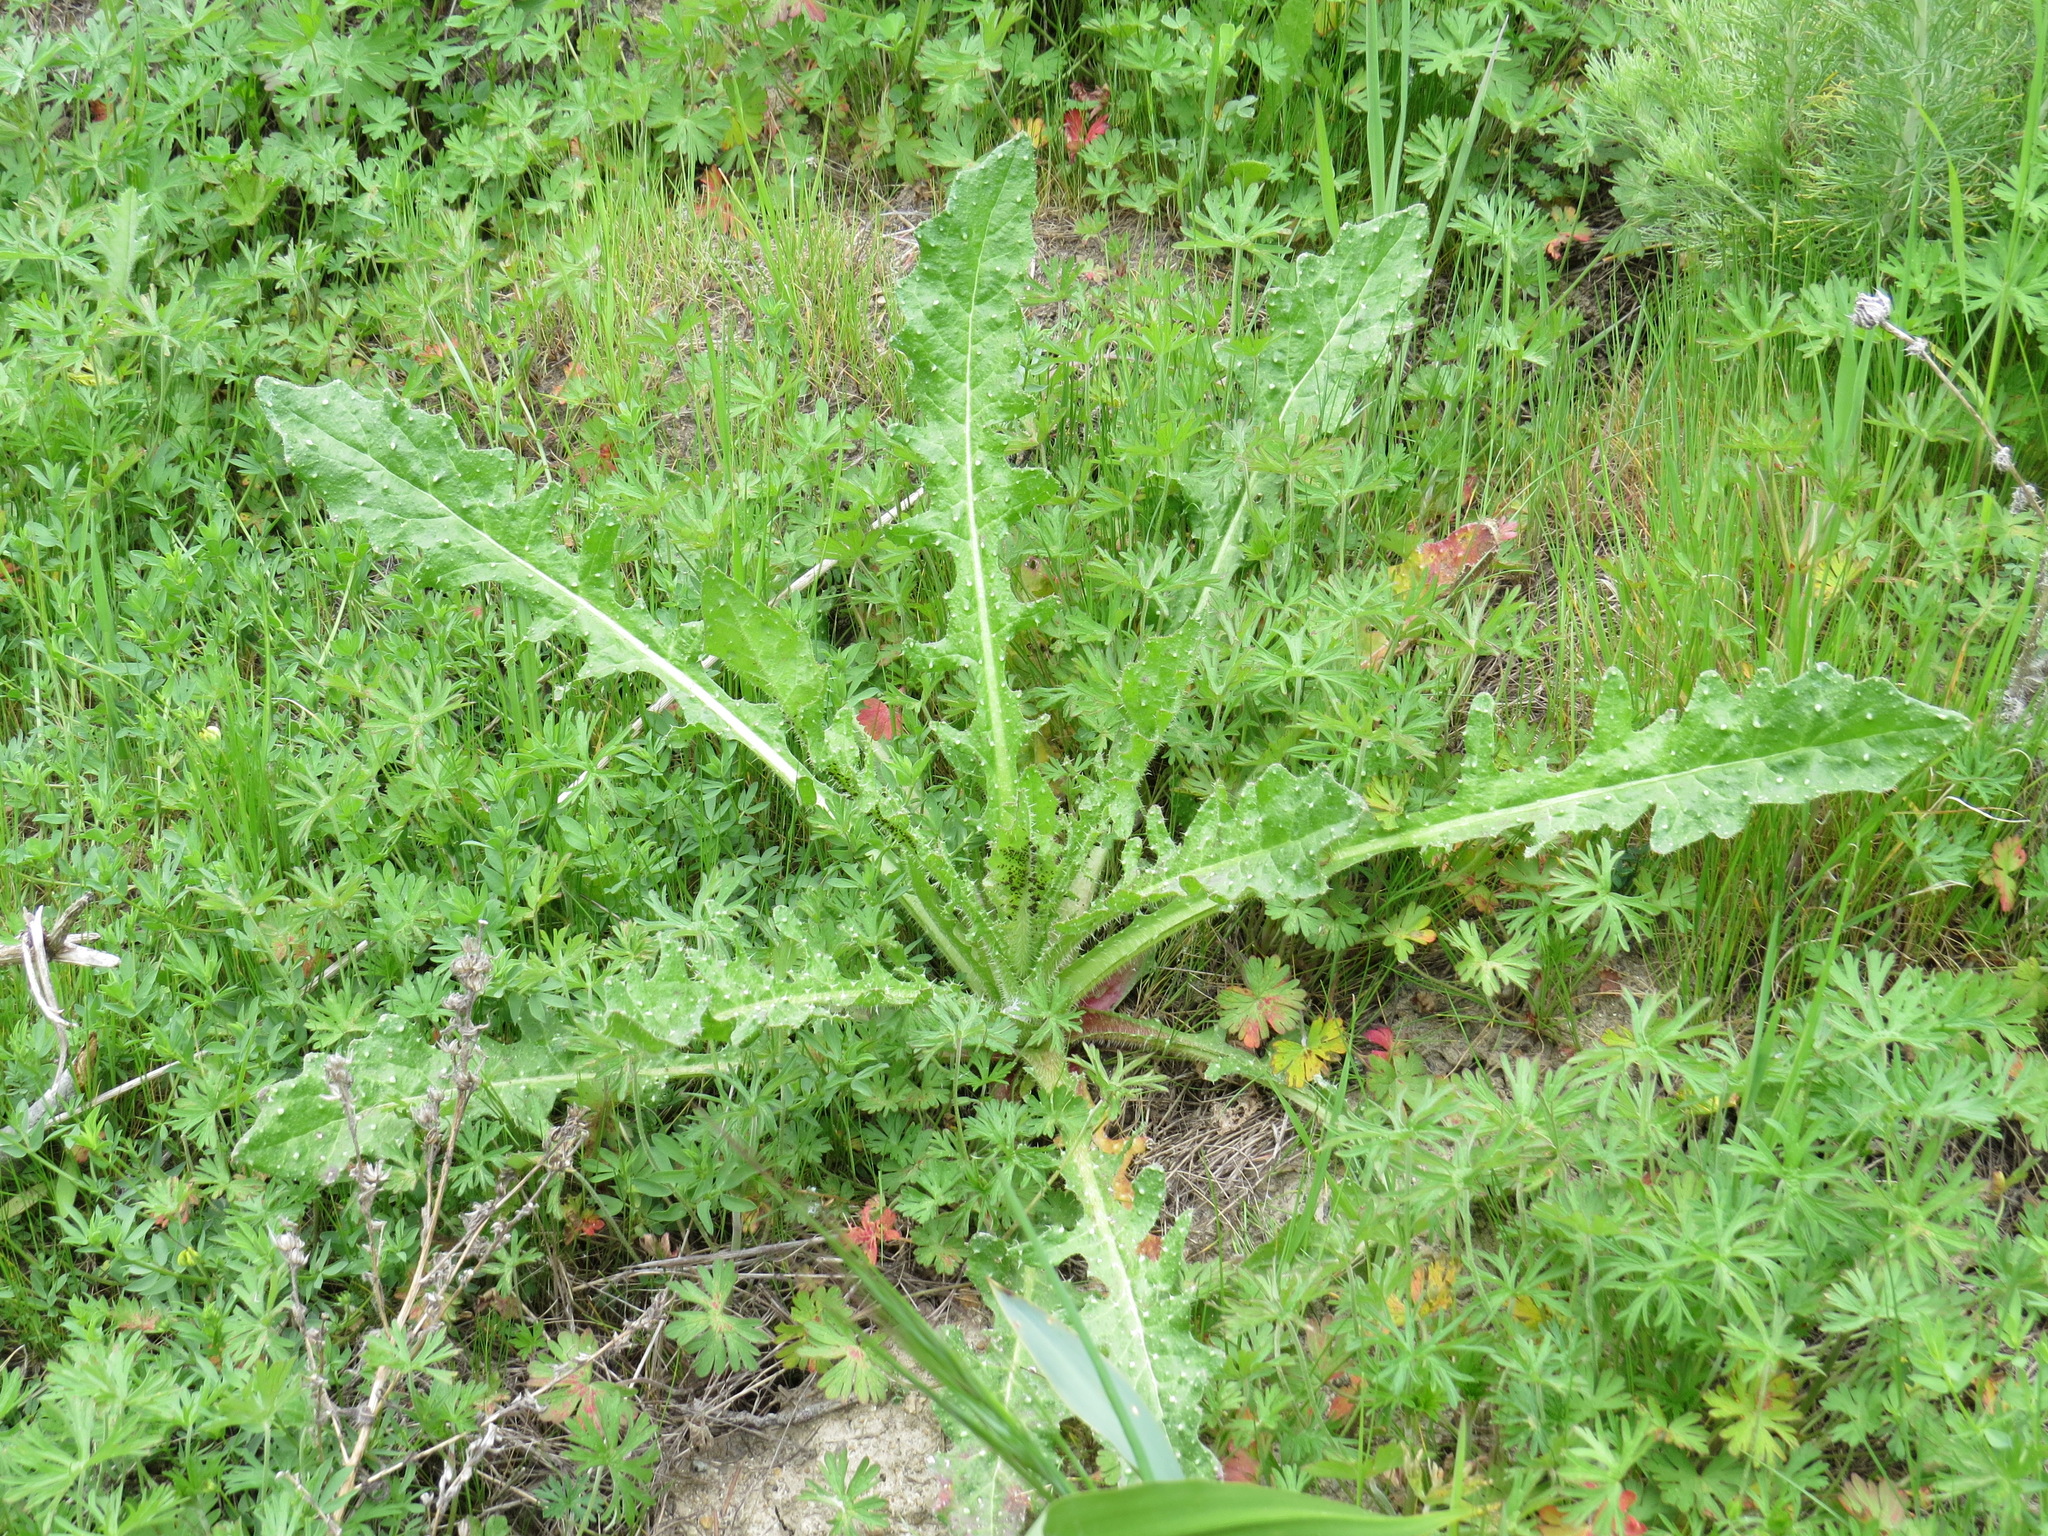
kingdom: Plantae
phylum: Tracheophyta
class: Magnoliopsida
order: Asterales
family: Asteraceae
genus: Helminthotheca
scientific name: Helminthotheca echioides
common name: Ox-tongue
